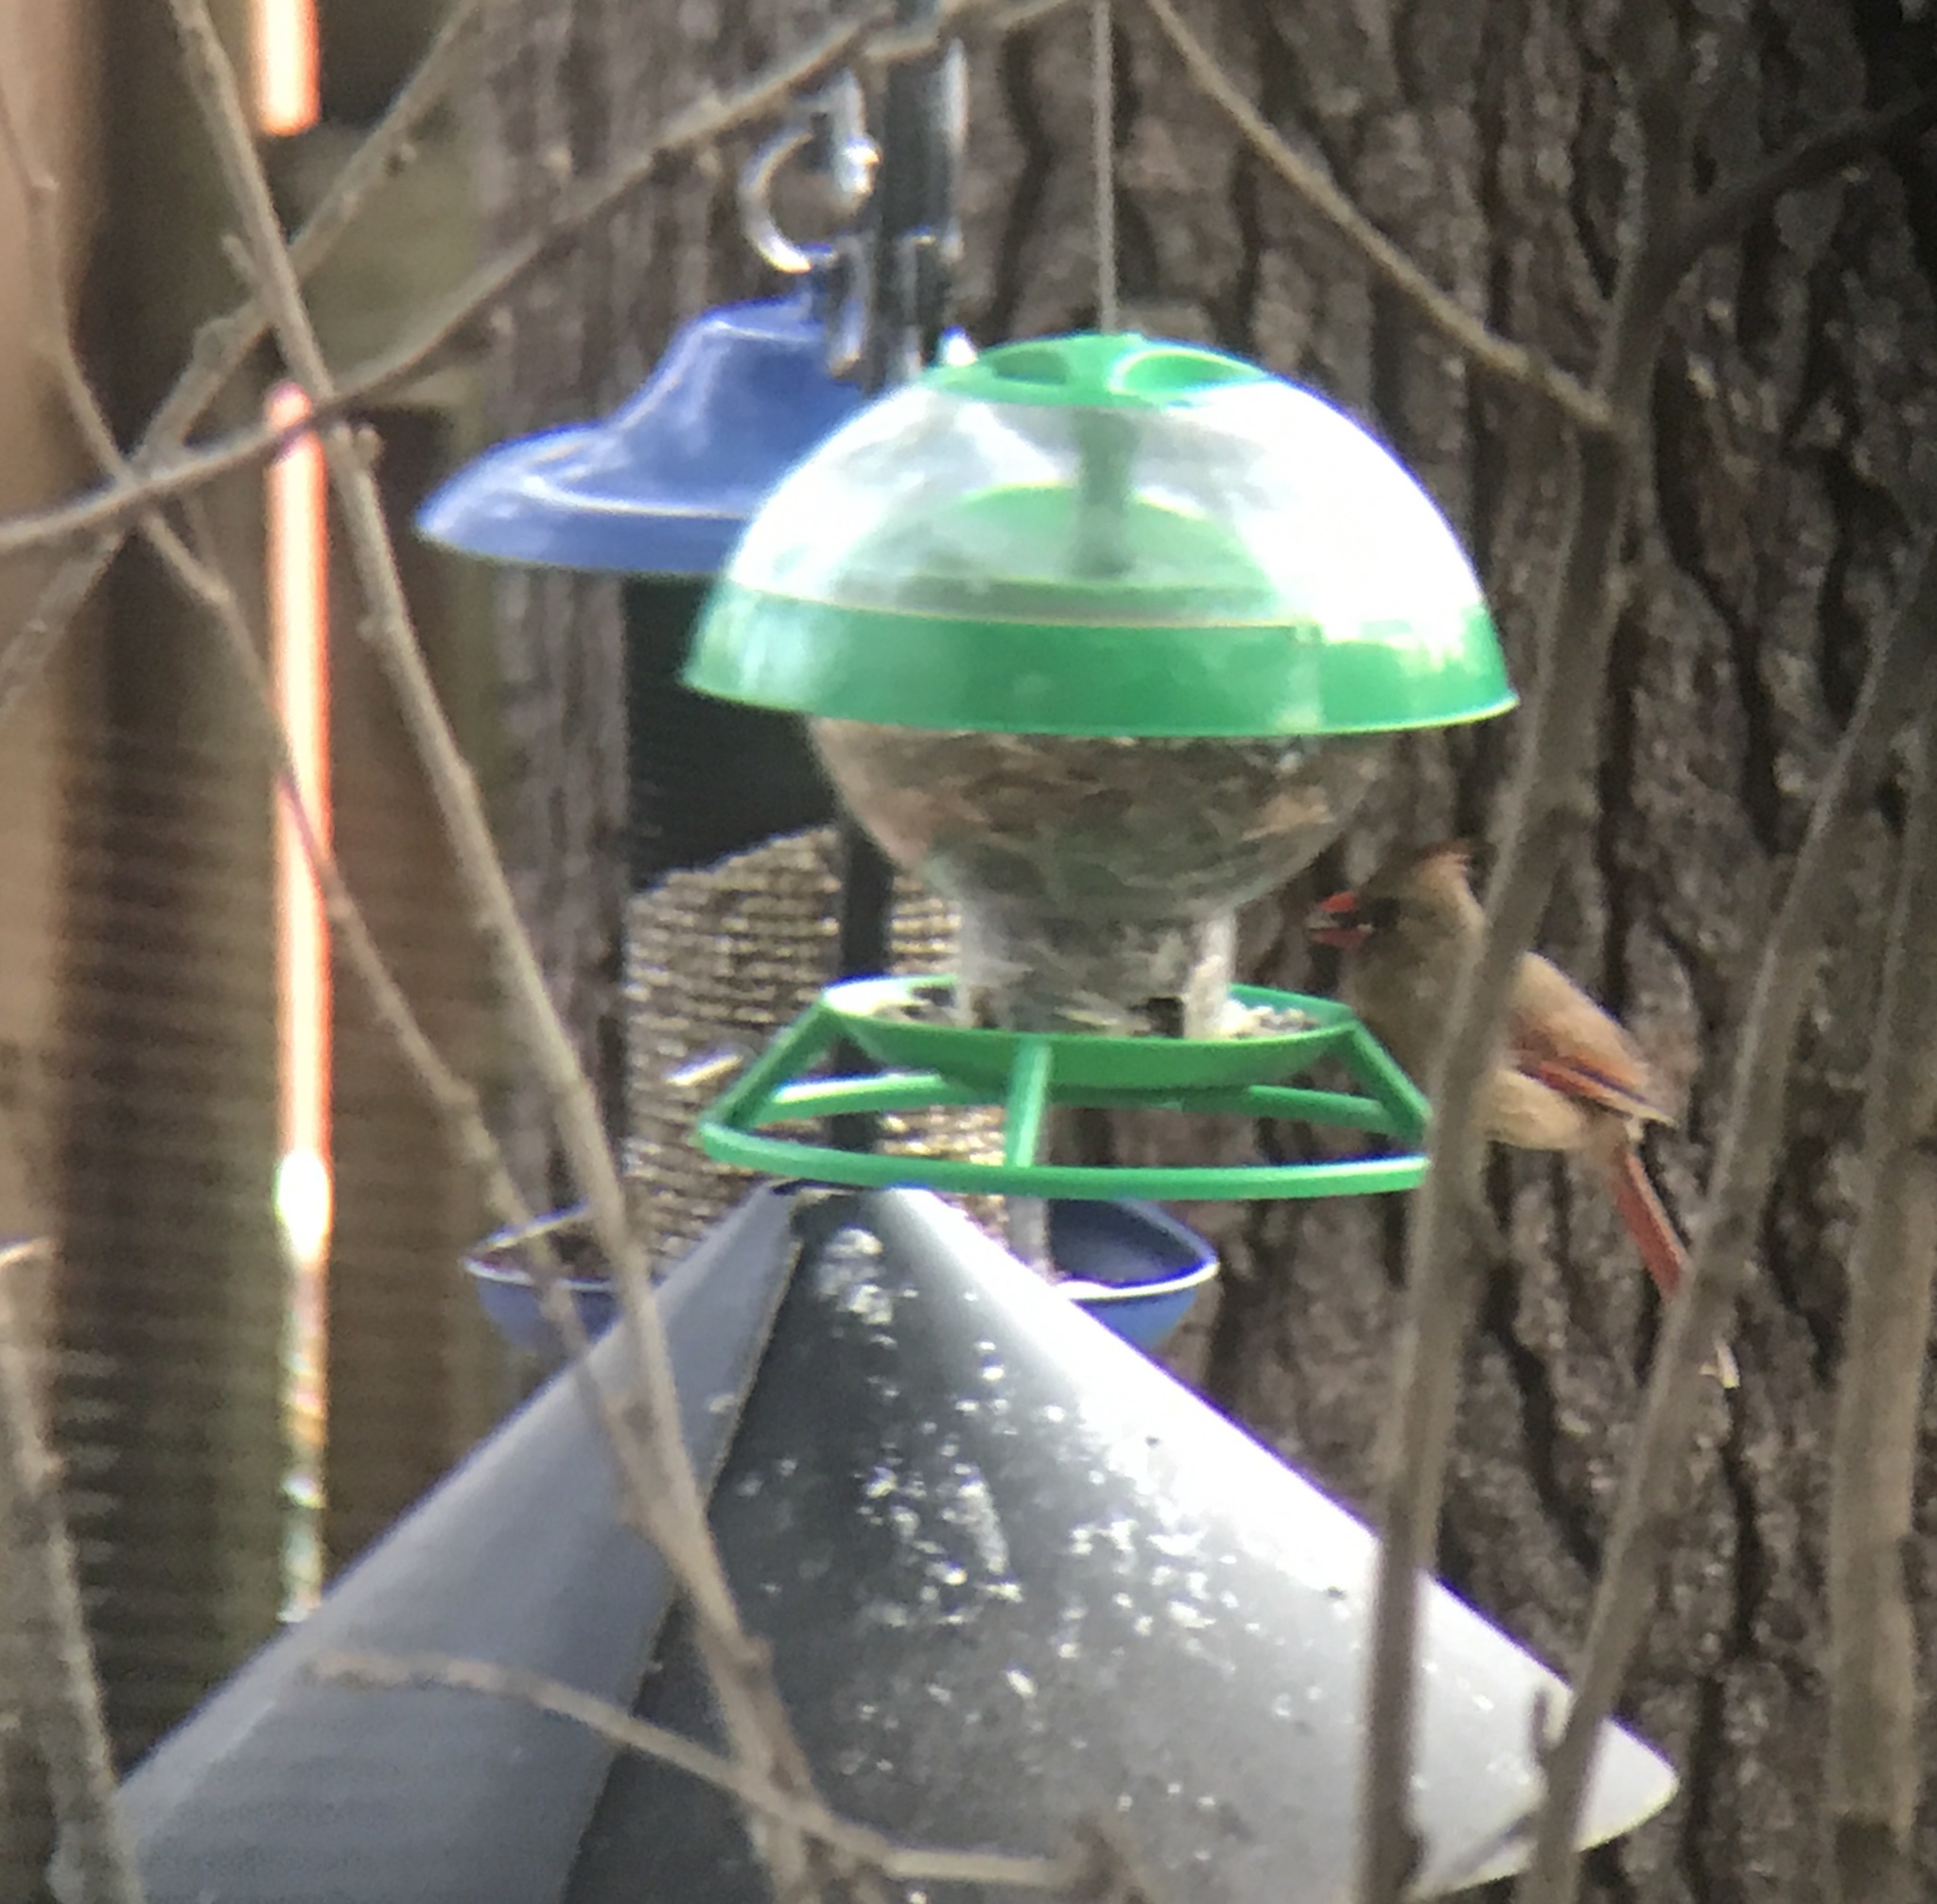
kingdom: Animalia
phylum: Chordata
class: Aves
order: Passeriformes
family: Cardinalidae
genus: Cardinalis
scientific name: Cardinalis cardinalis
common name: Northern cardinal
